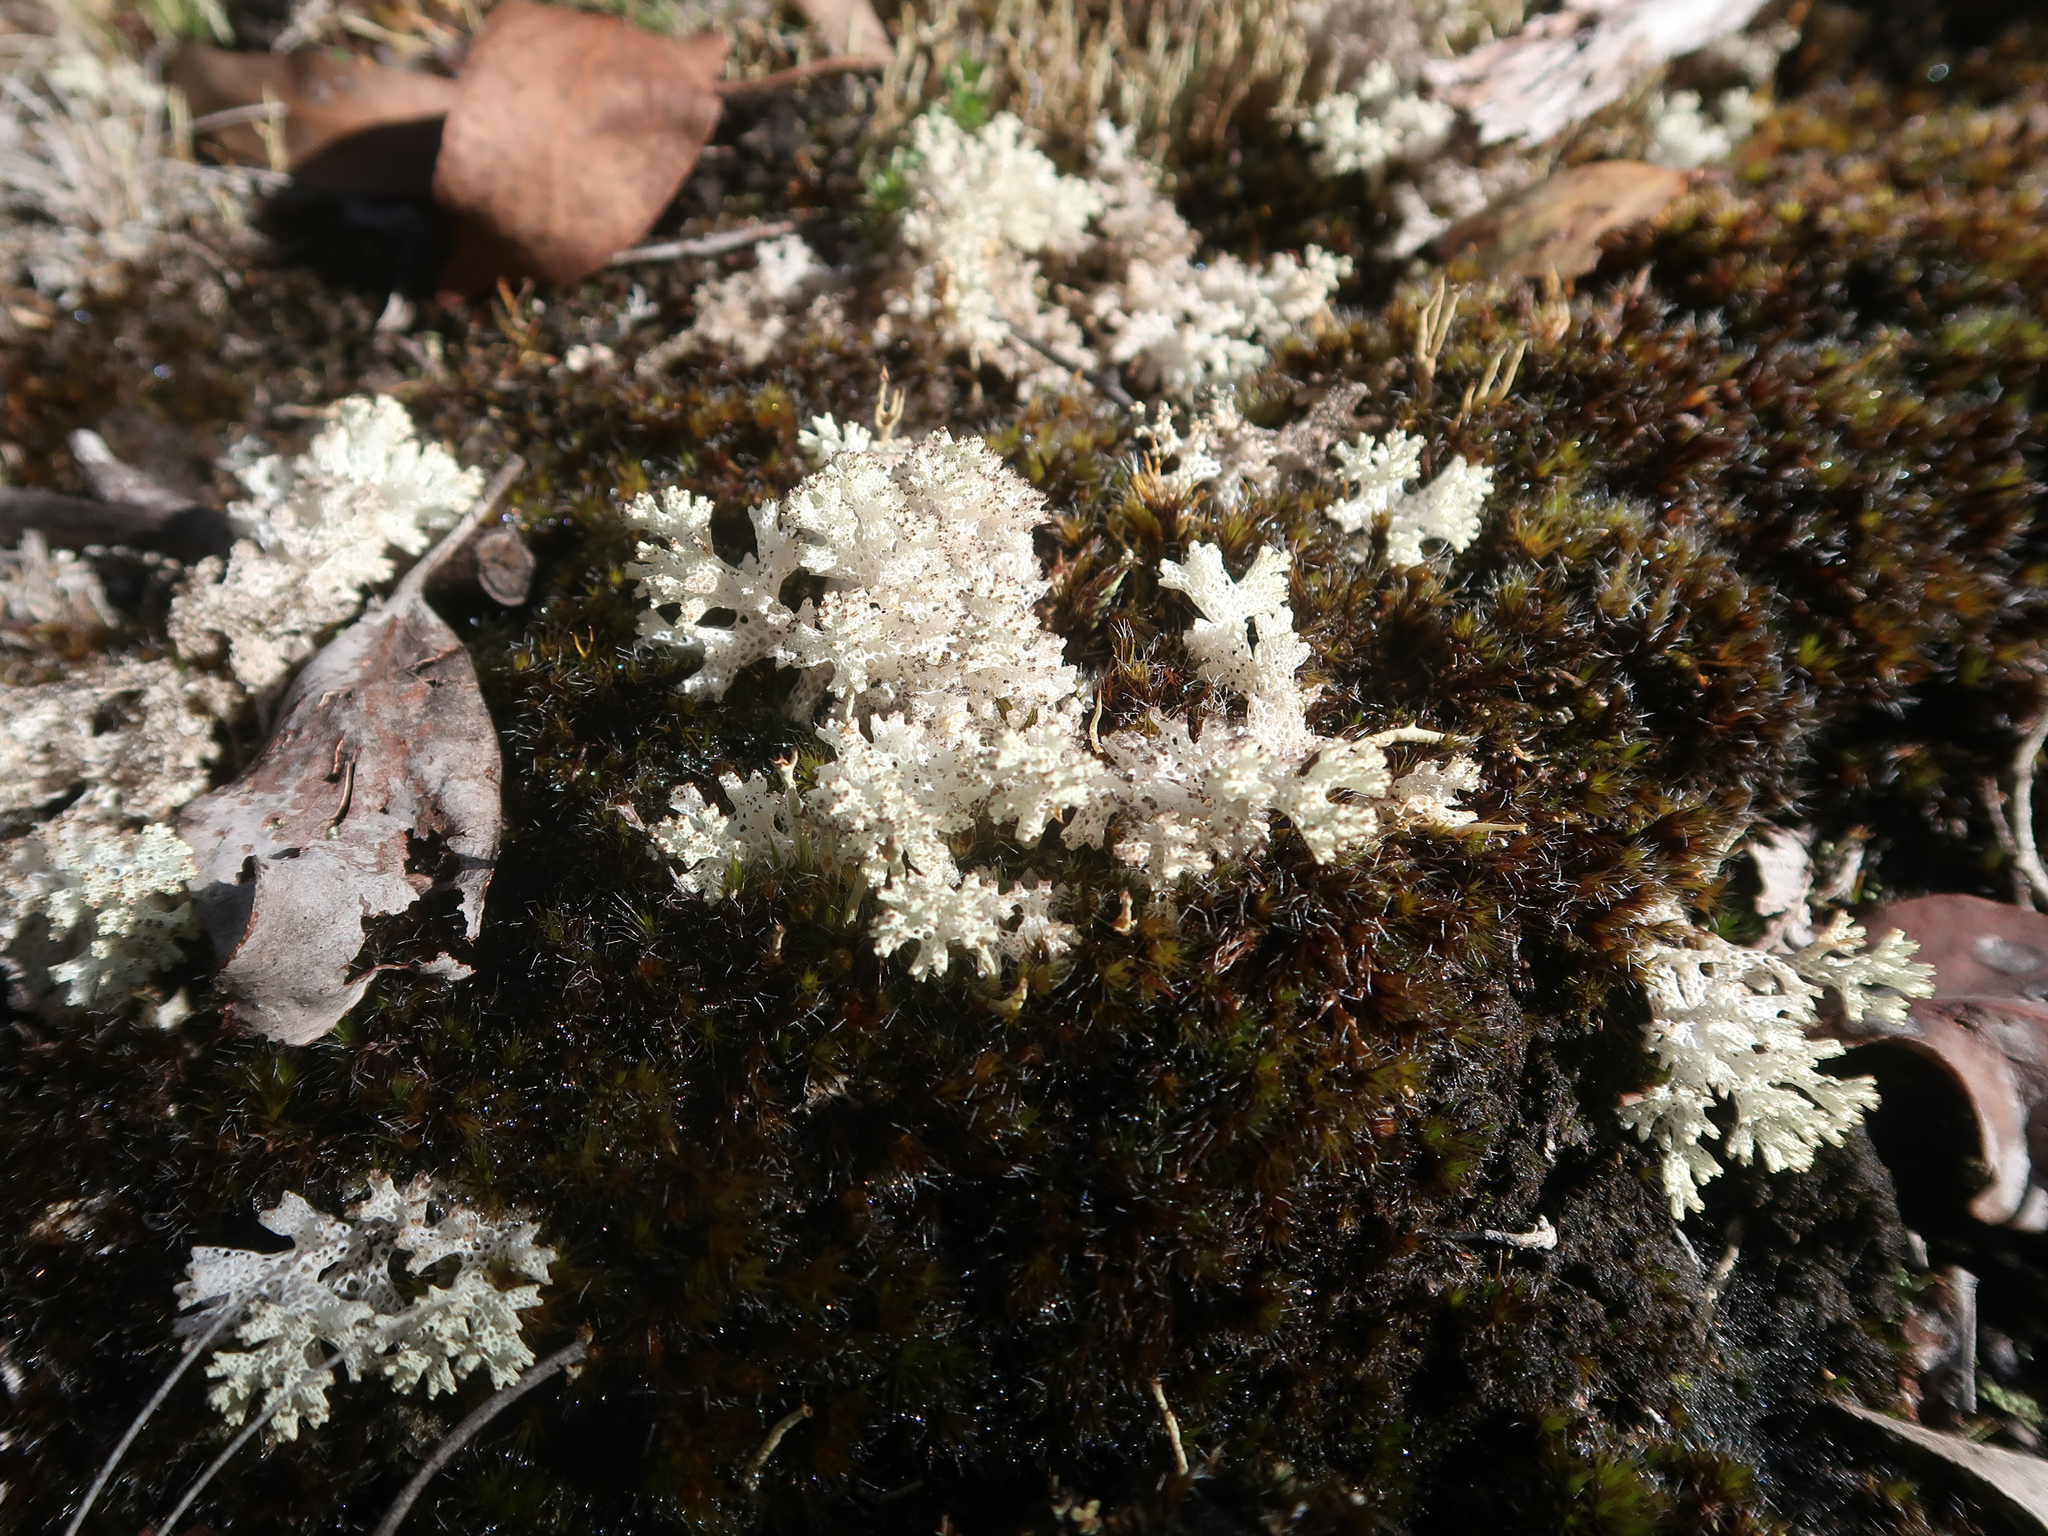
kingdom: Fungi
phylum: Ascomycota
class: Lecanoromycetes
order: Lecanorales
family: Cladoniaceae
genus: Pulchrocladia
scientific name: Pulchrocladia retipora
